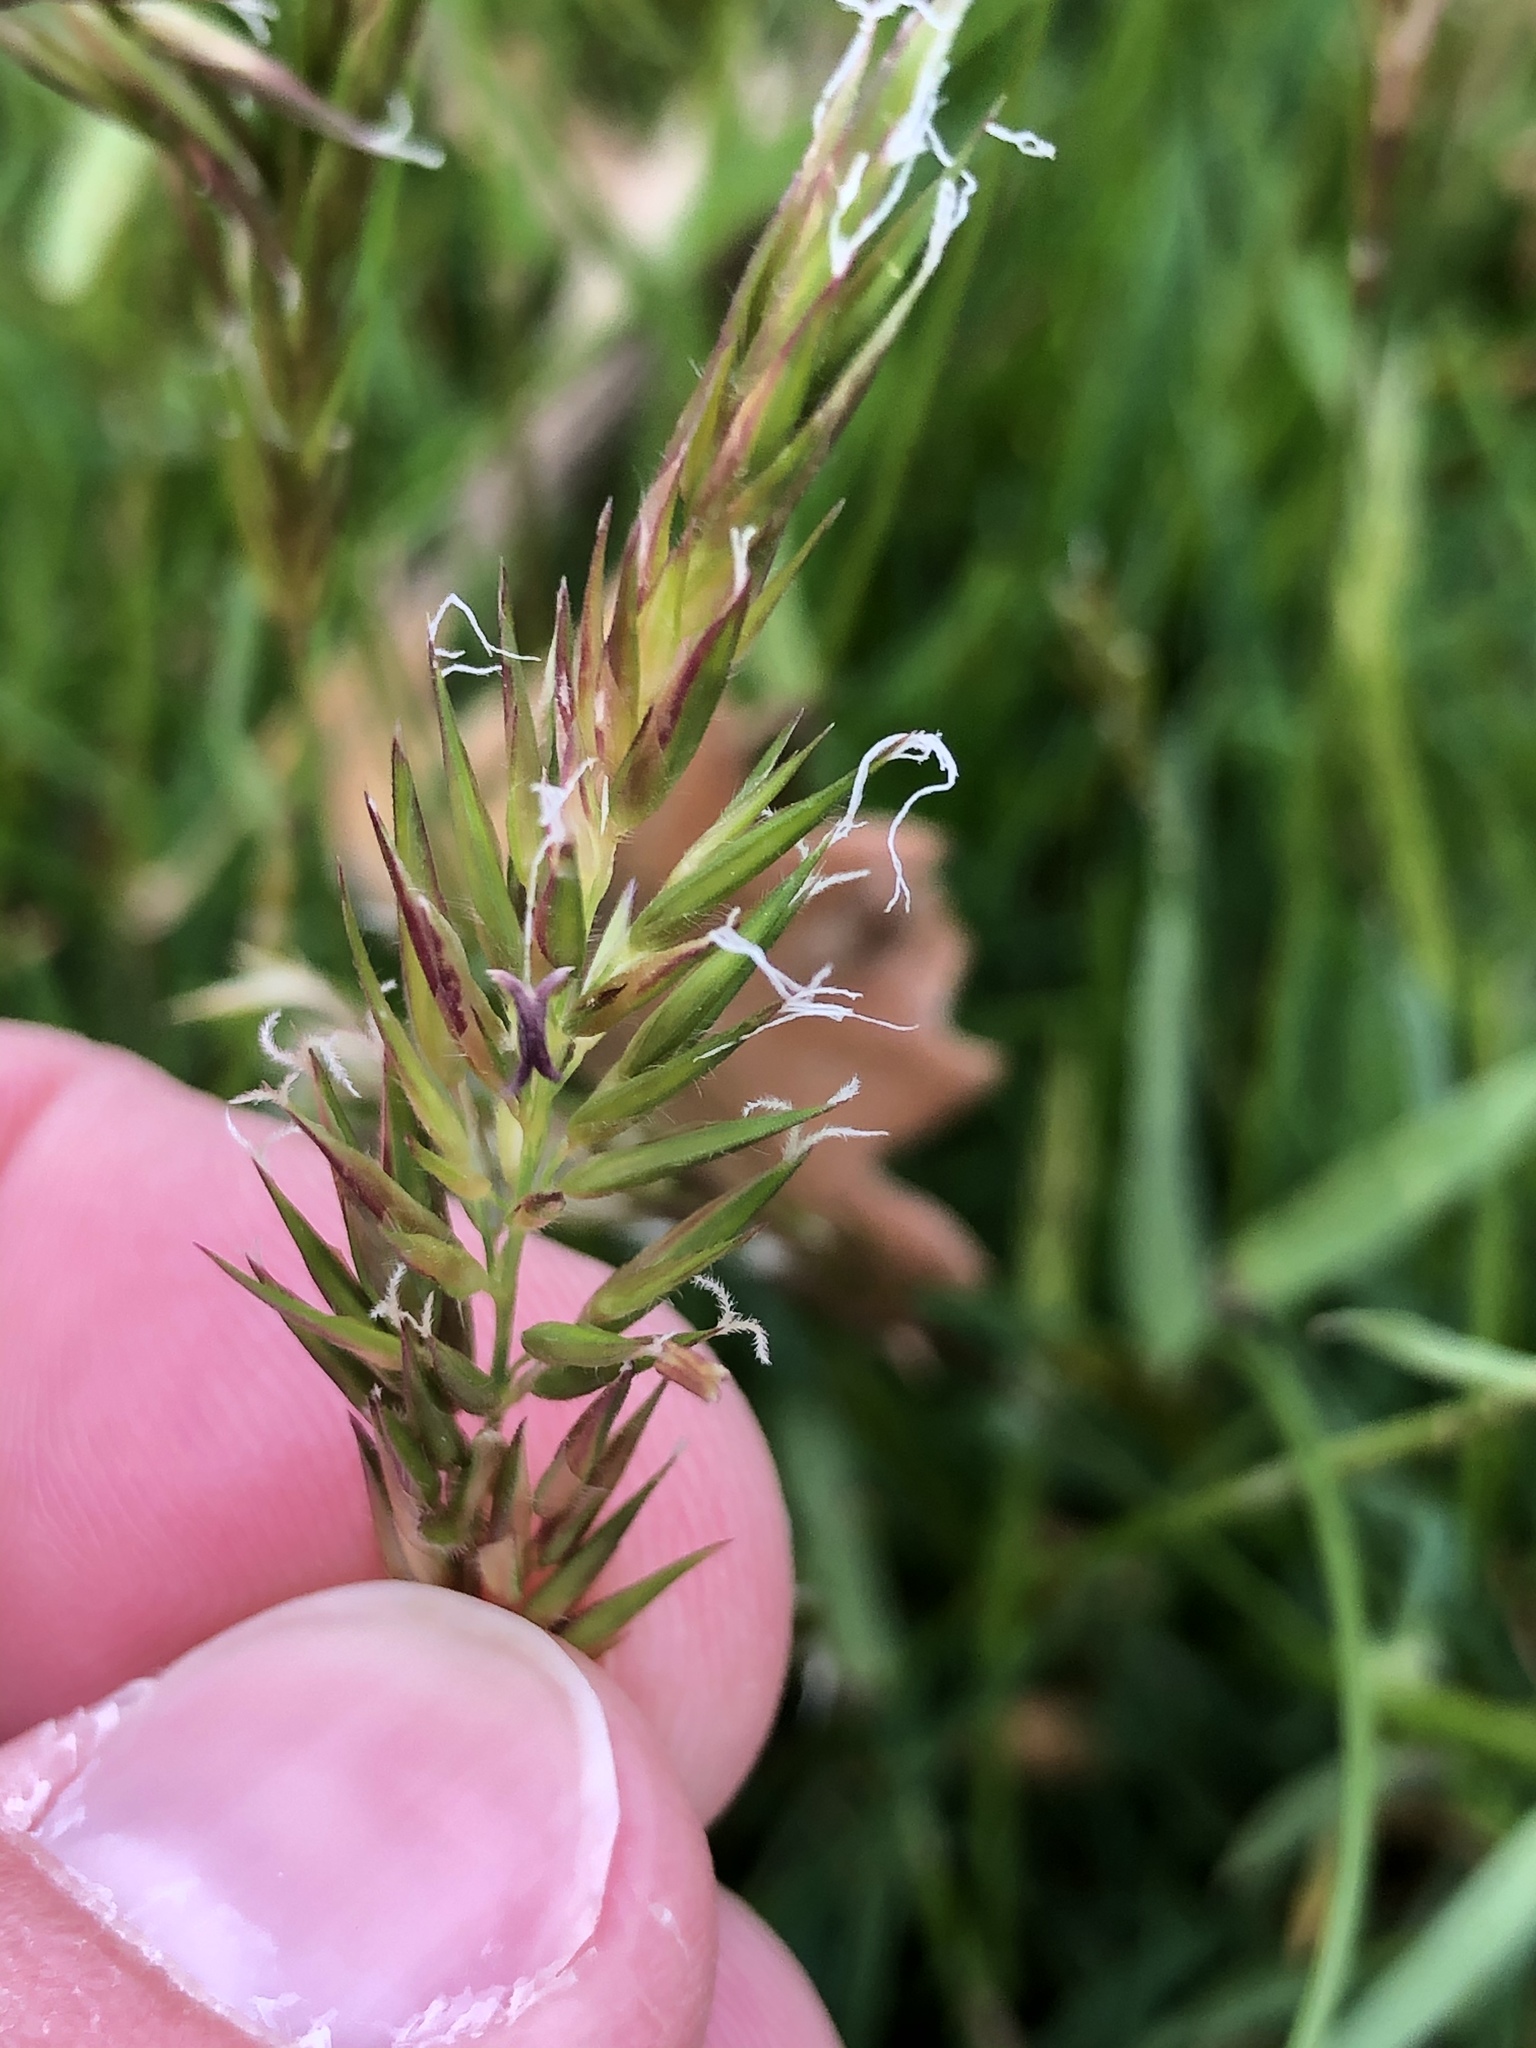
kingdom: Plantae
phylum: Tracheophyta
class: Liliopsida
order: Poales
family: Poaceae
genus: Anthoxanthum
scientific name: Anthoxanthum odoratum
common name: Sweet vernalgrass
